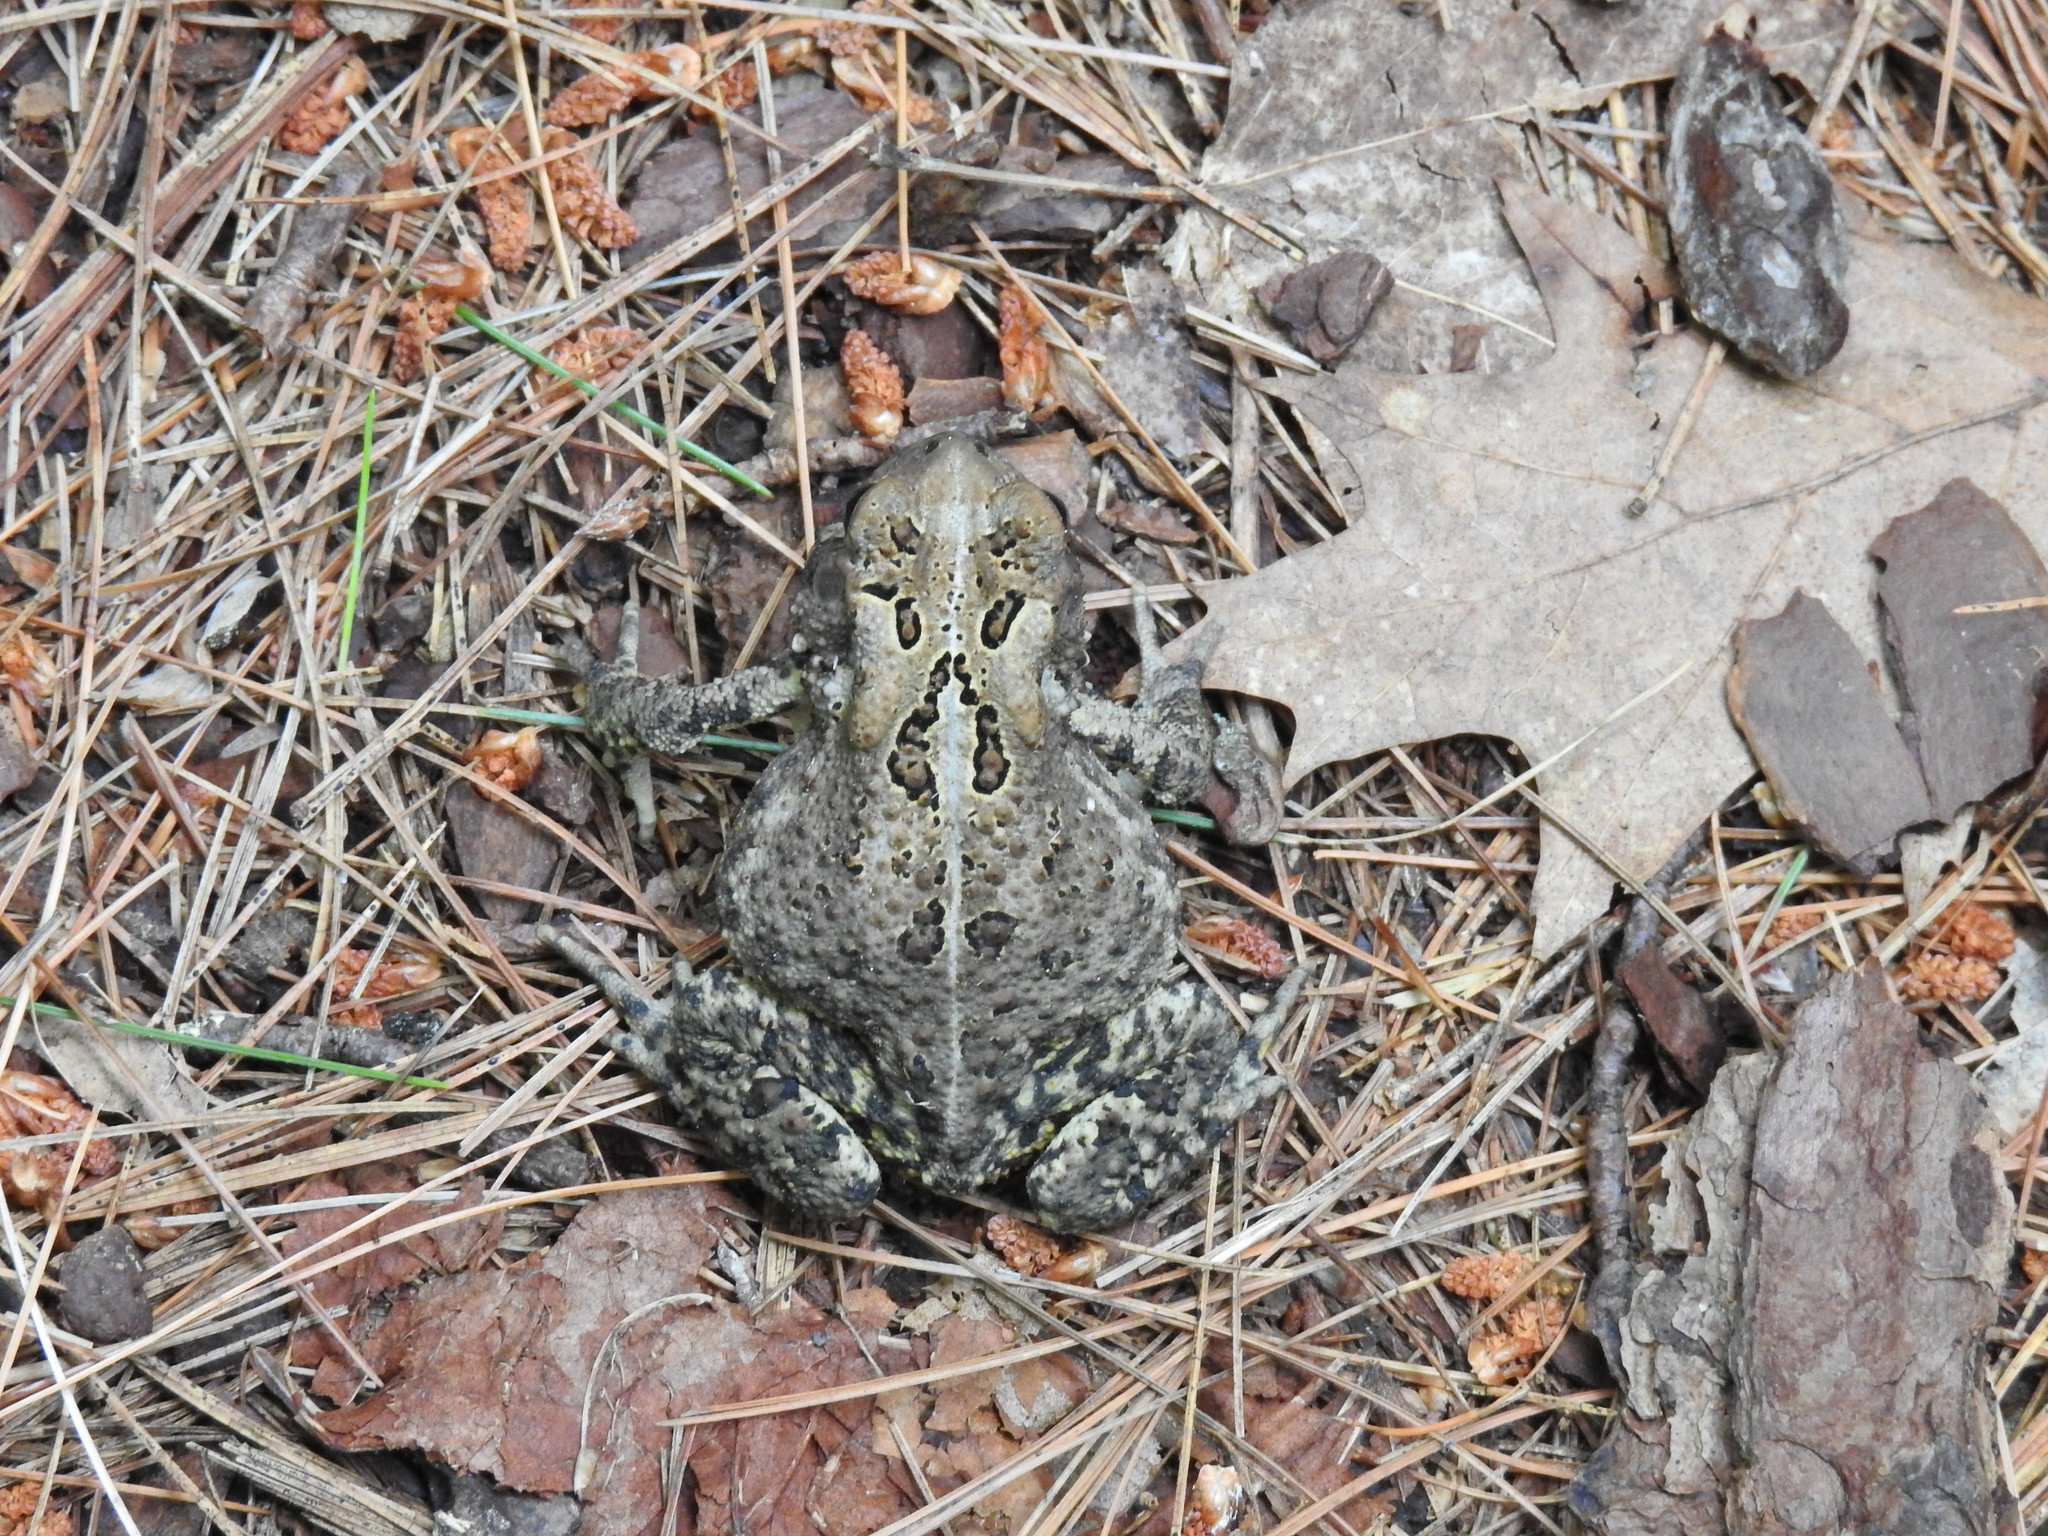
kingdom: Animalia
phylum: Chordata
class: Amphibia
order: Anura
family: Bufonidae
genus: Anaxyrus
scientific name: Anaxyrus americanus
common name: American toad
